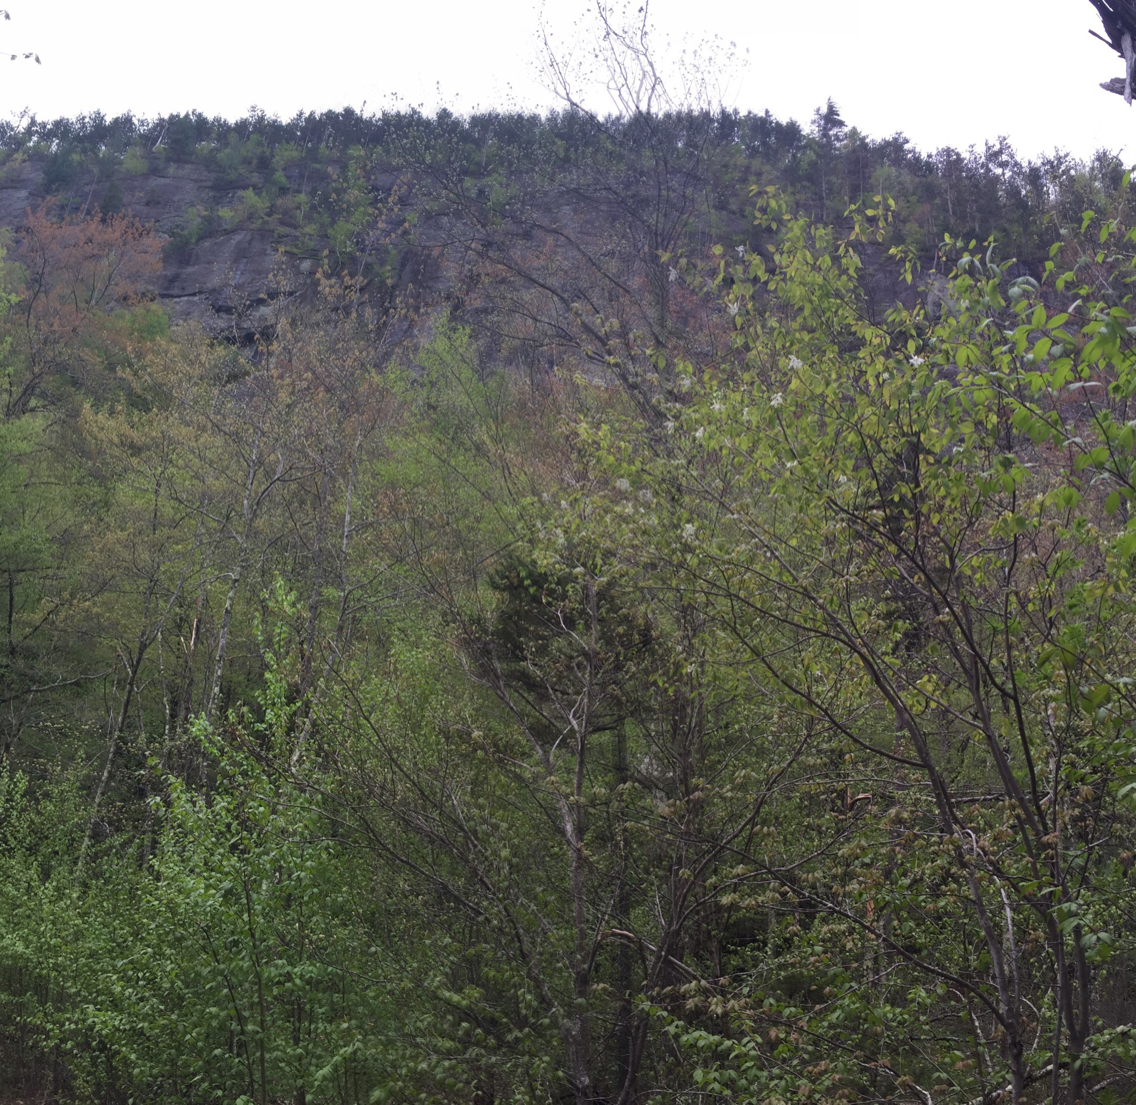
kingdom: Plantae
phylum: Tracheophyta
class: Pinopsida
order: Pinales
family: Pinaceae
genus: Pinus
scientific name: Pinus resinosa
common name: Norway pine
